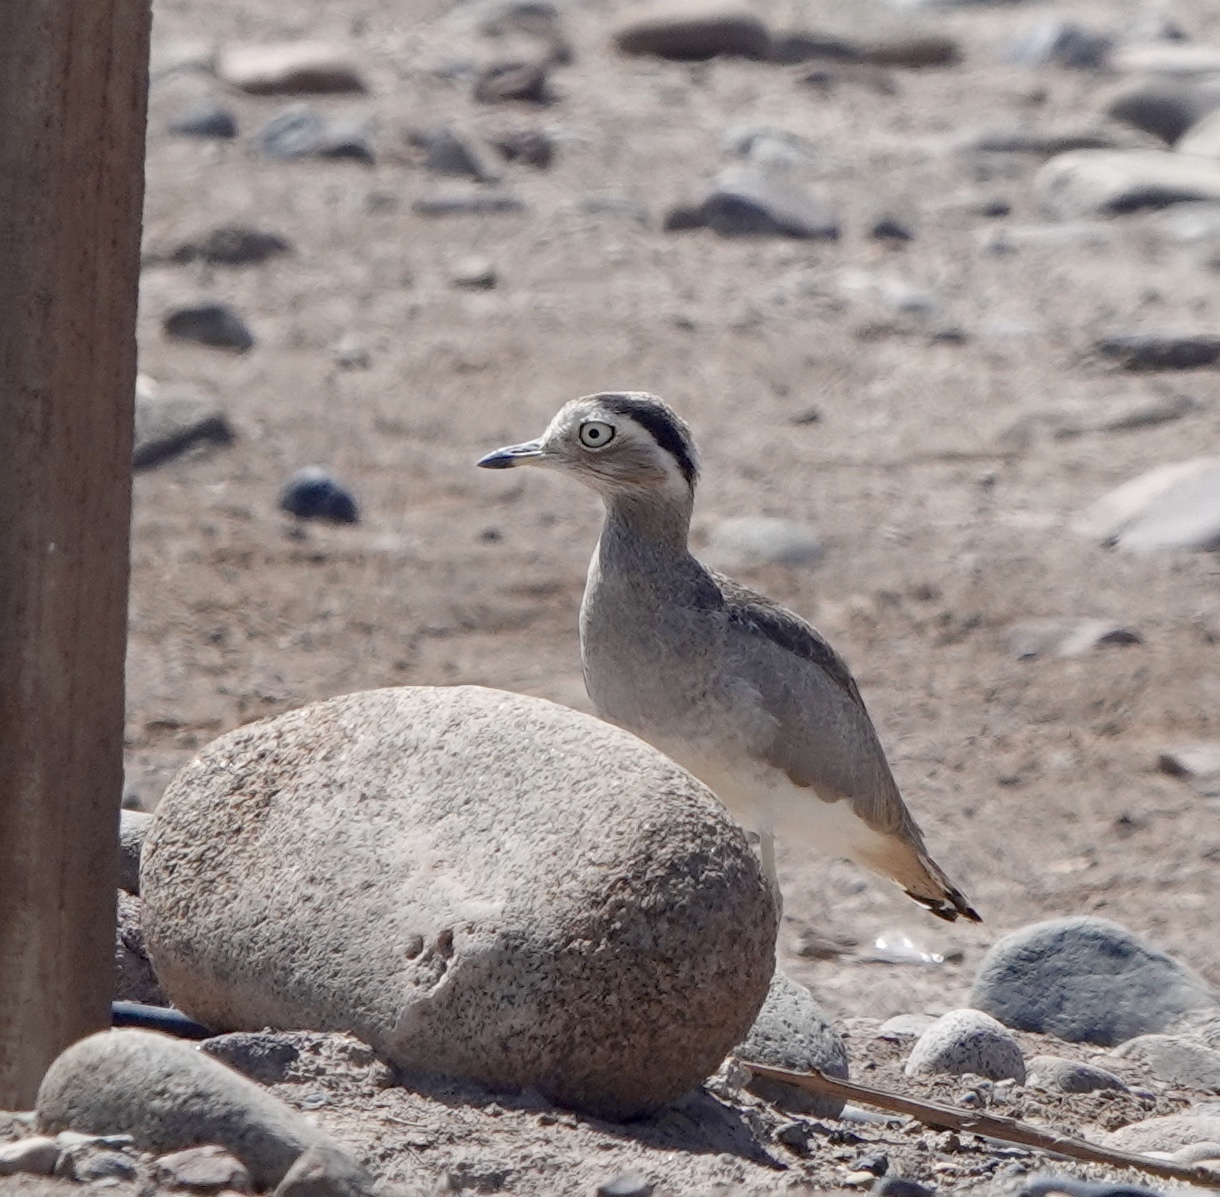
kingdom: Animalia
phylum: Chordata
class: Aves
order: Charadriiformes
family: Burhinidae
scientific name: Burhinidae
